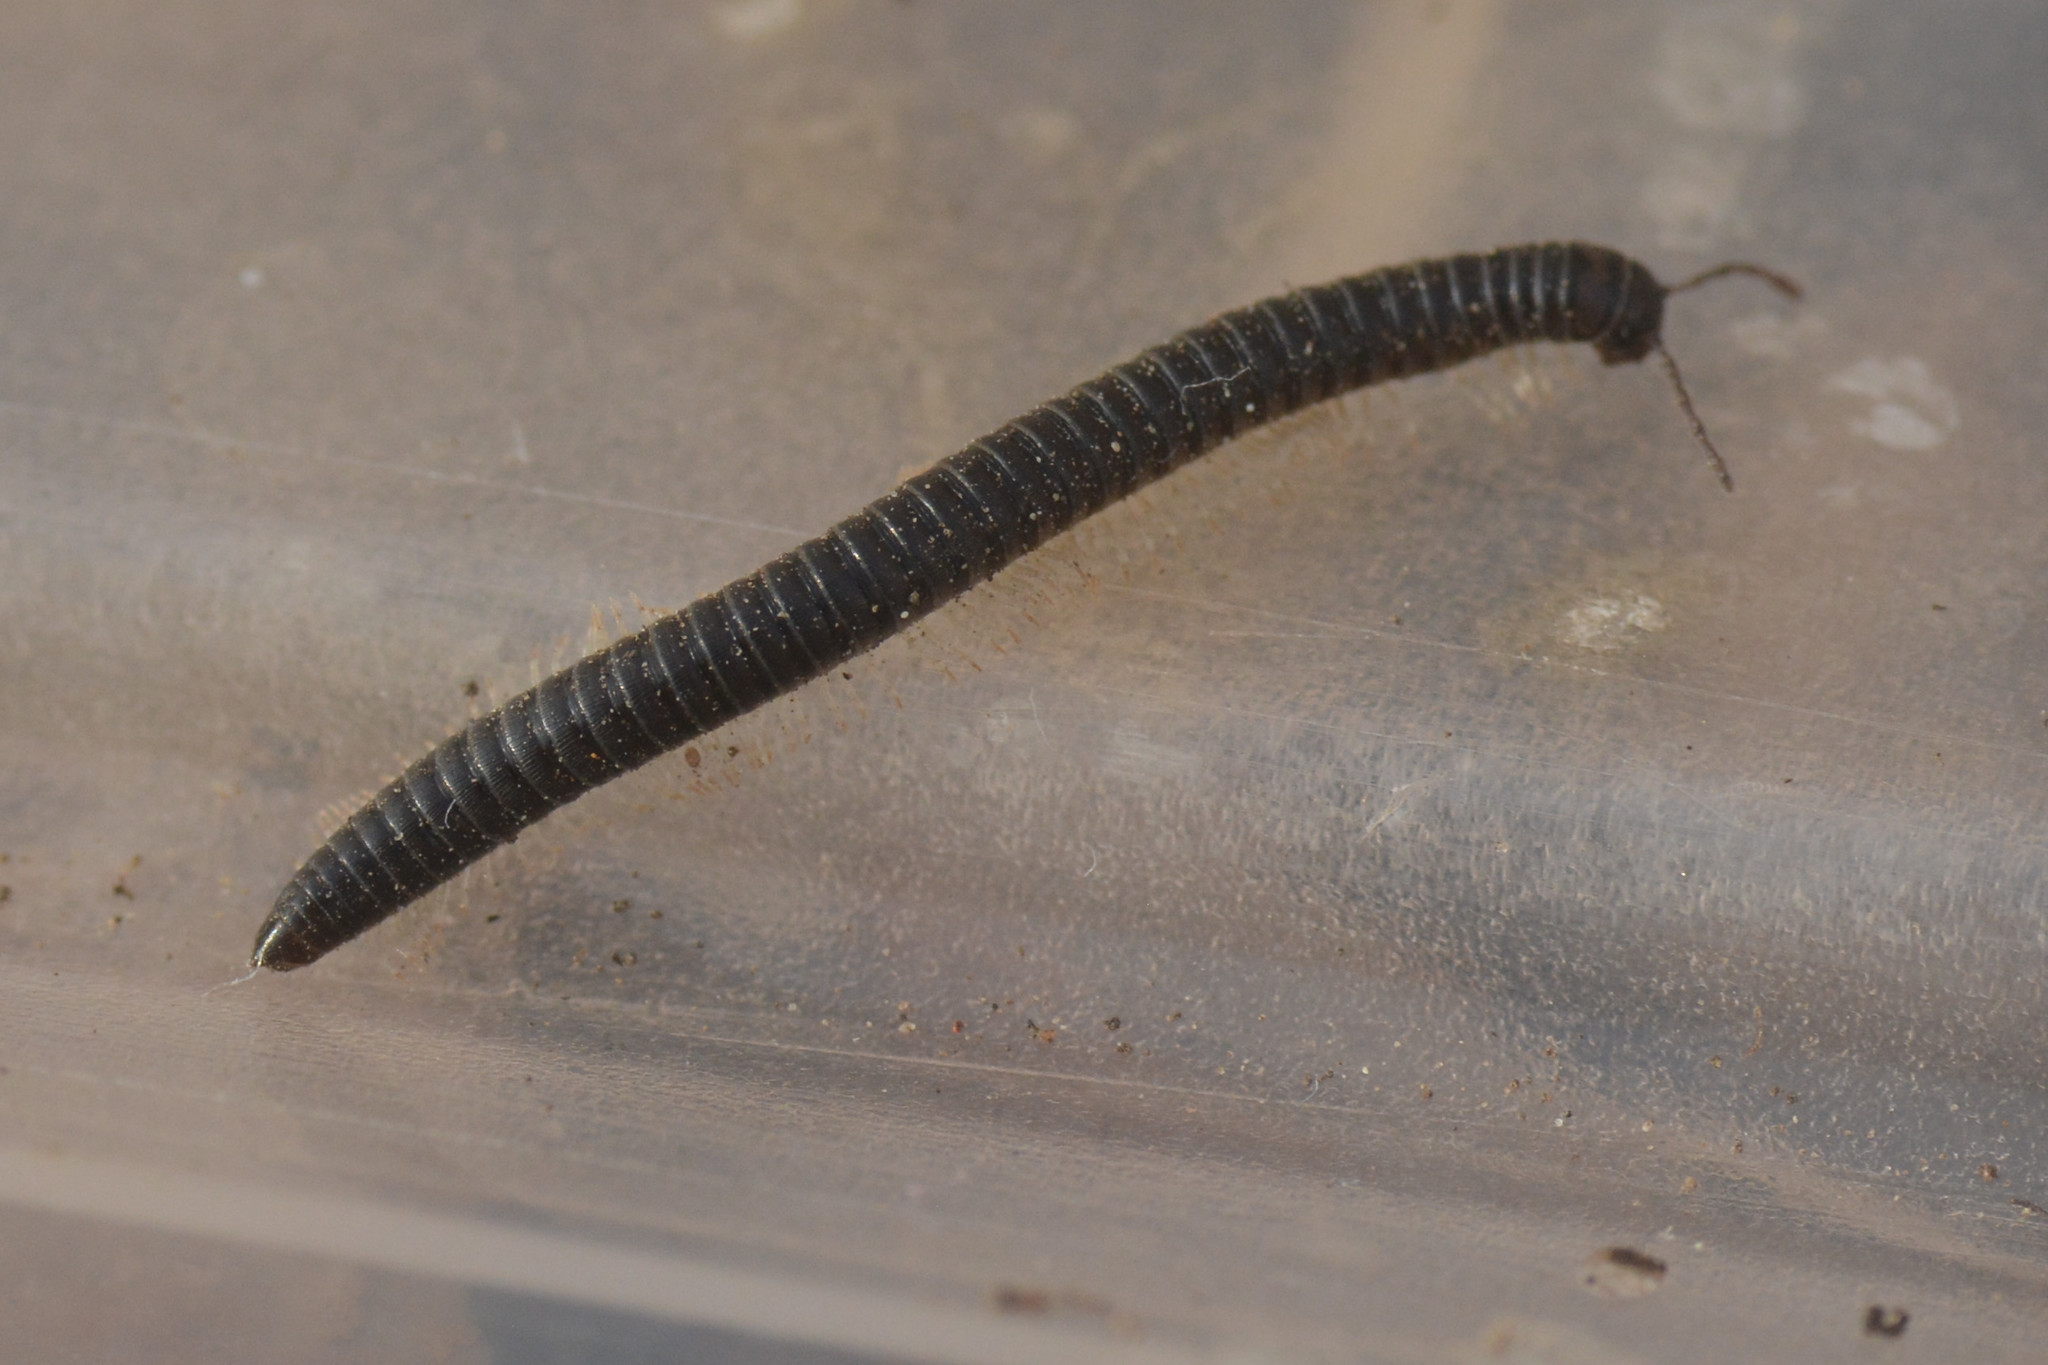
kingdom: Animalia
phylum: Arthropoda
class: Diplopoda
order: Julida
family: Julidae
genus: Tachypodoiulus
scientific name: Tachypodoiulus niger
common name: White-legged snake millipede
